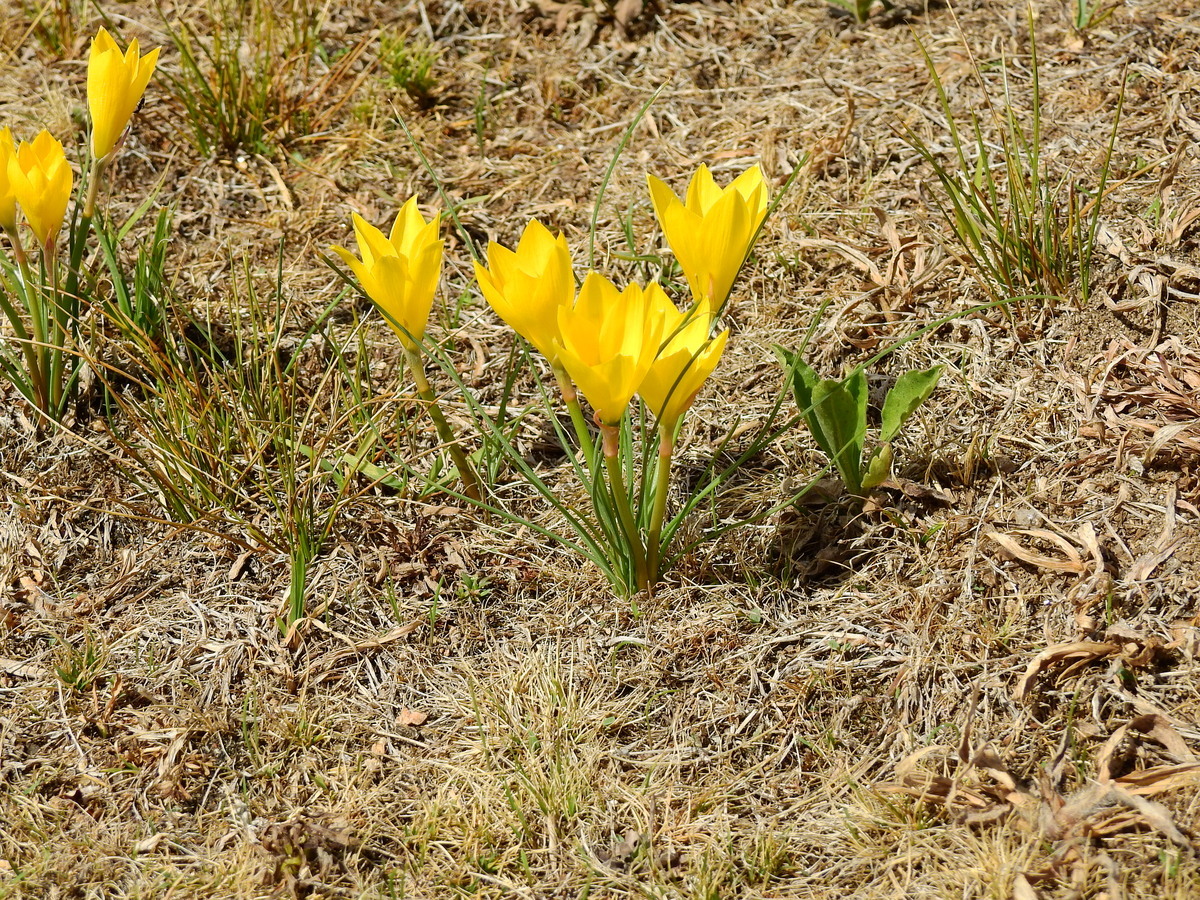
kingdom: Plantae
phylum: Tracheophyta
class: Liliopsida
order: Asparagales
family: Amaryllidaceae
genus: Zephyranthes
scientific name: Zephyranthes filifolia
